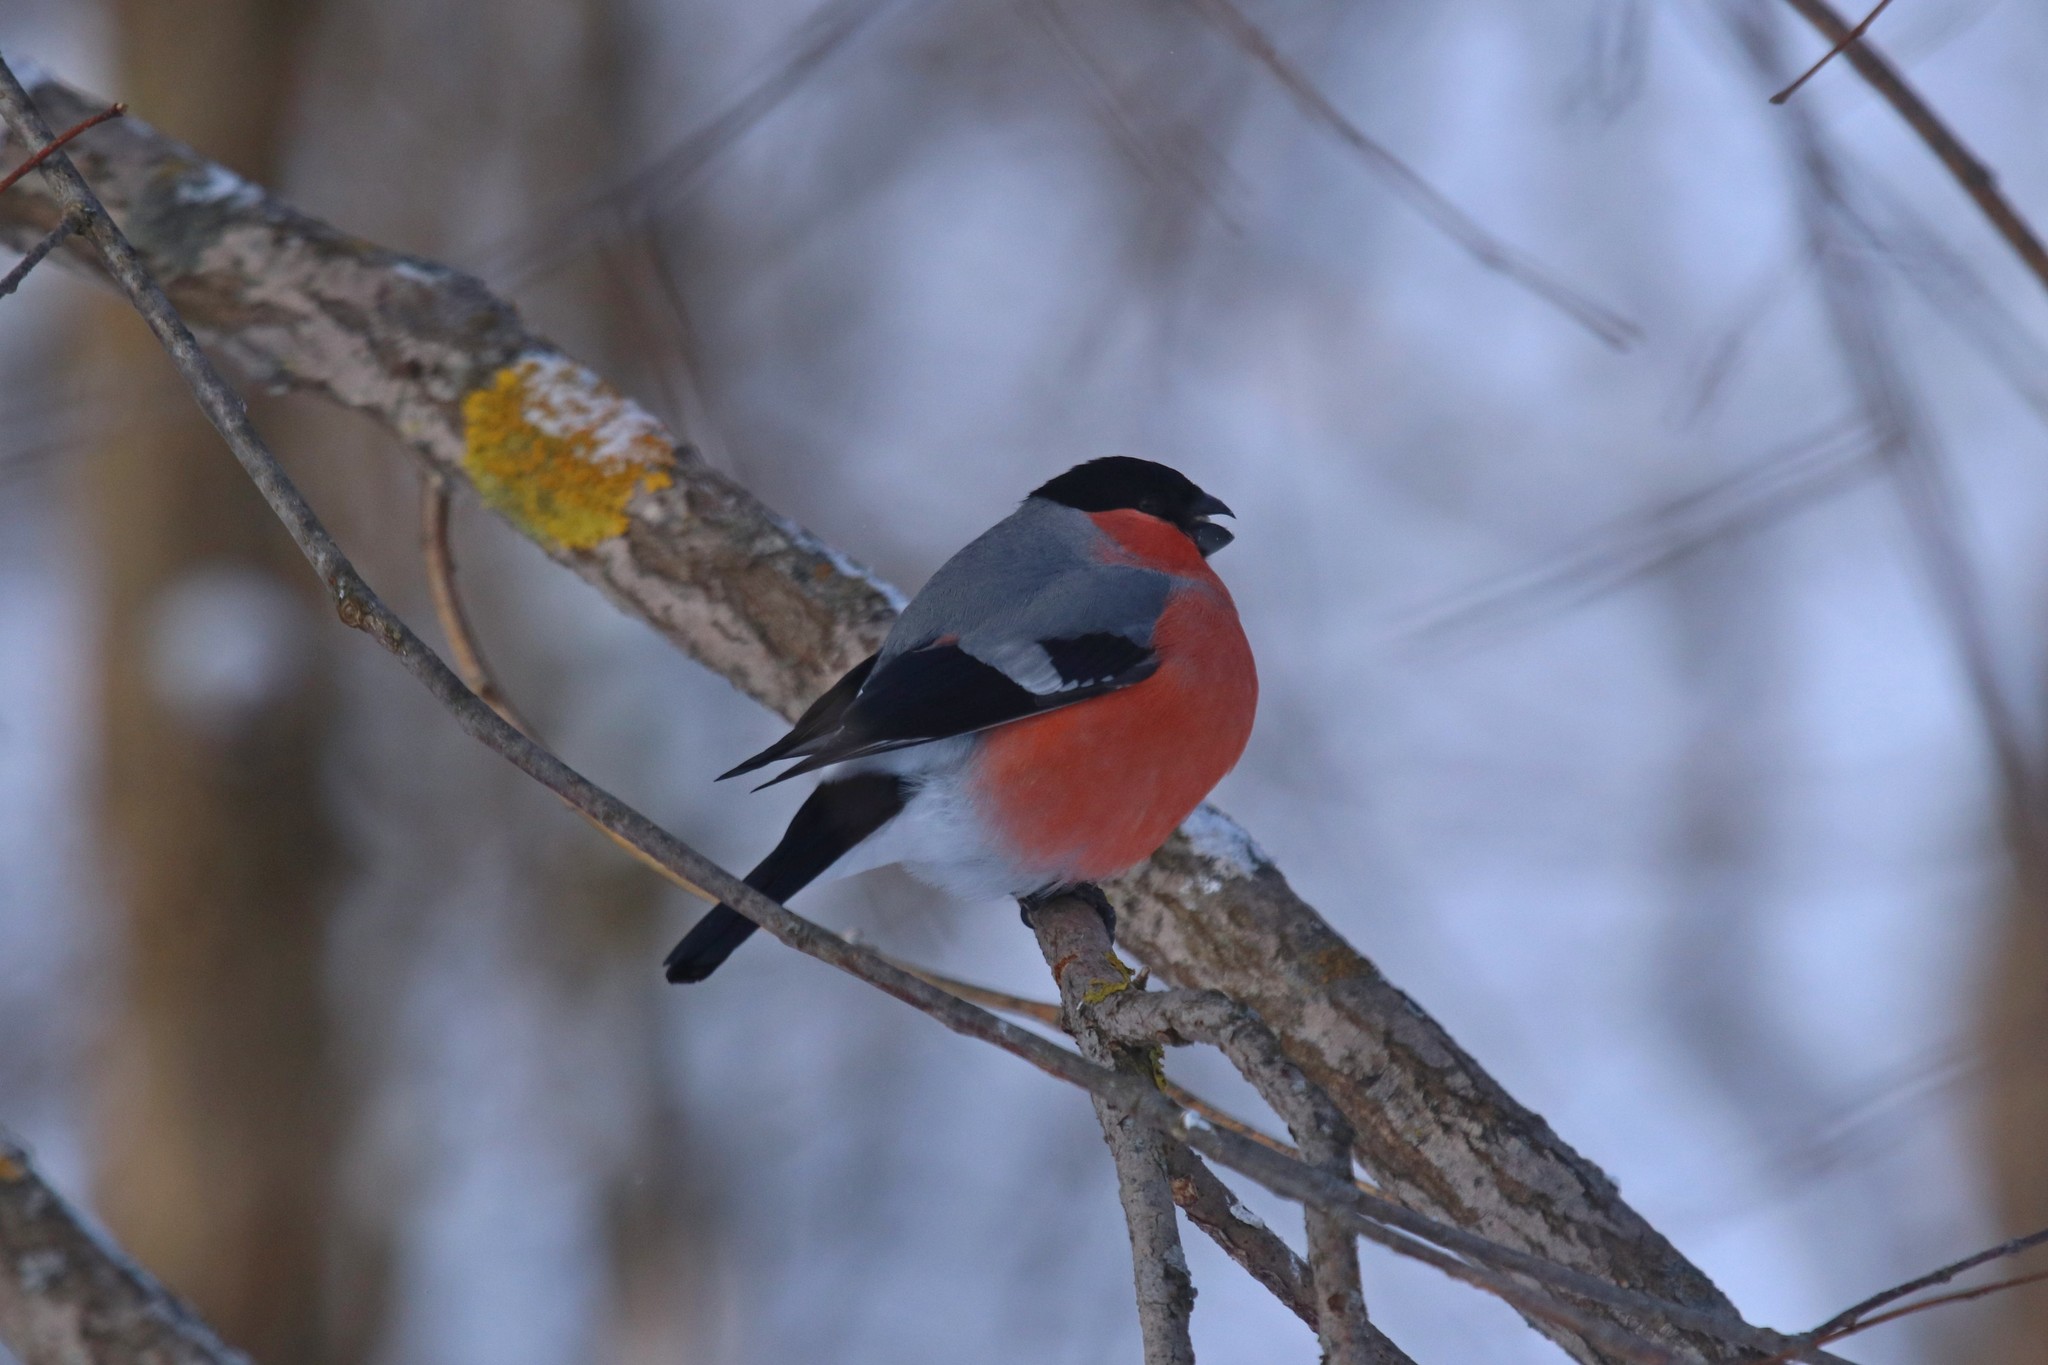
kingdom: Animalia
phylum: Chordata
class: Aves
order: Passeriformes
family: Fringillidae
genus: Pyrrhula
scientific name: Pyrrhula pyrrhula
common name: Eurasian bullfinch
